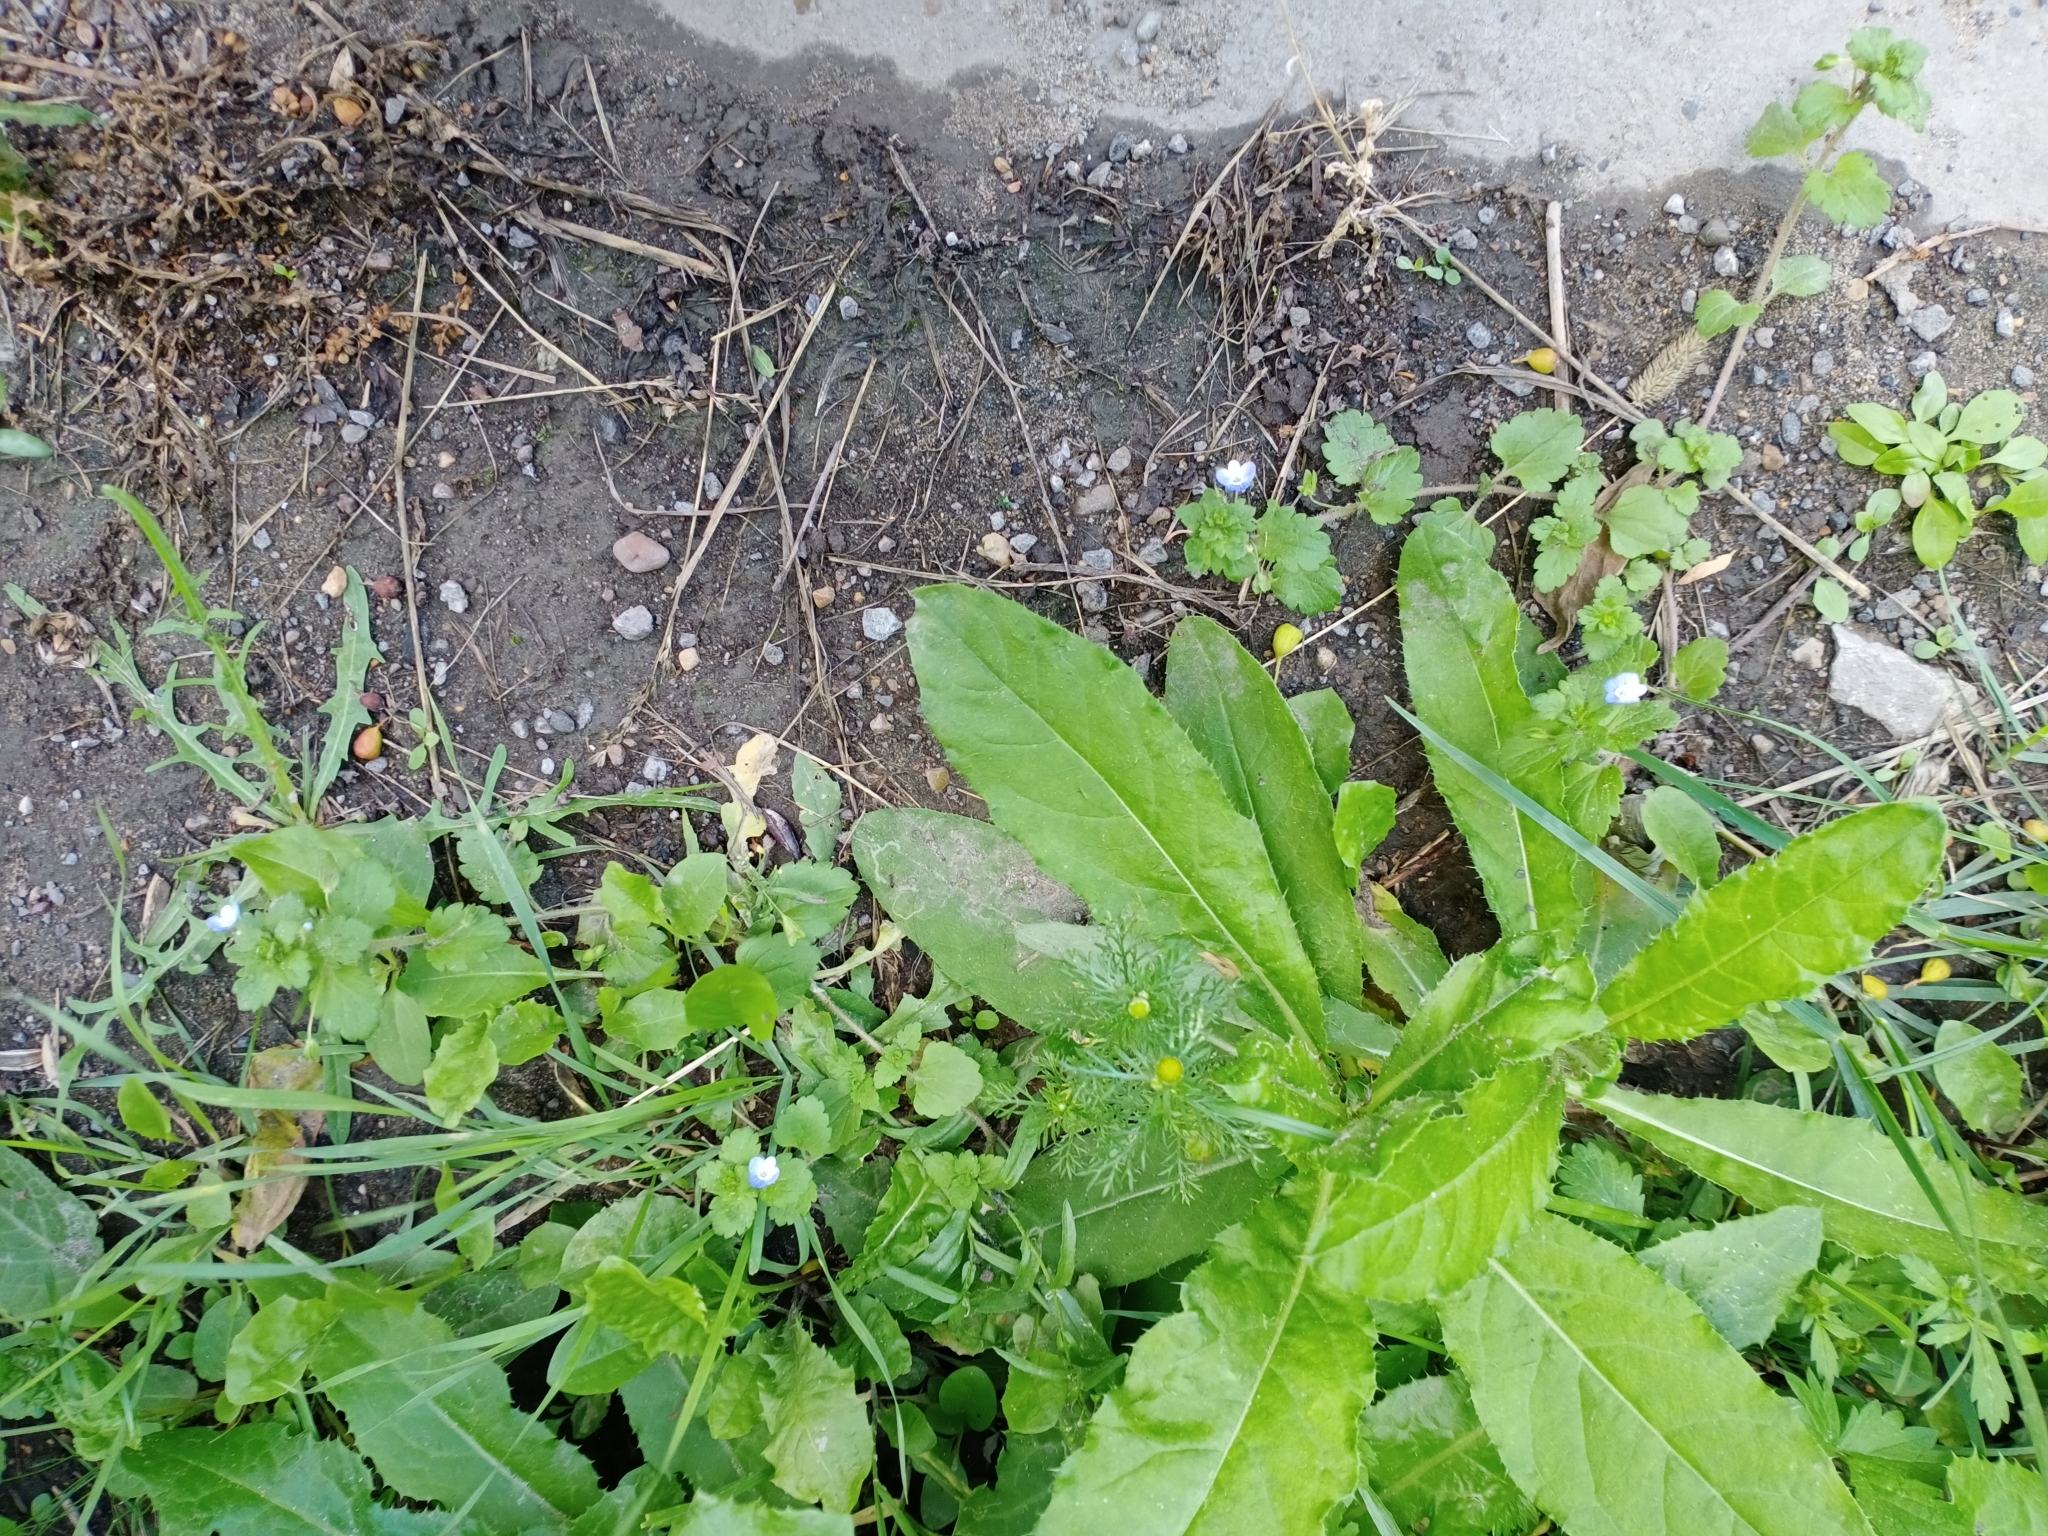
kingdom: Plantae
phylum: Tracheophyta
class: Magnoliopsida
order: Lamiales
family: Plantaginaceae
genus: Veronica
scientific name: Veronica persica
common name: Common field-speedwell
